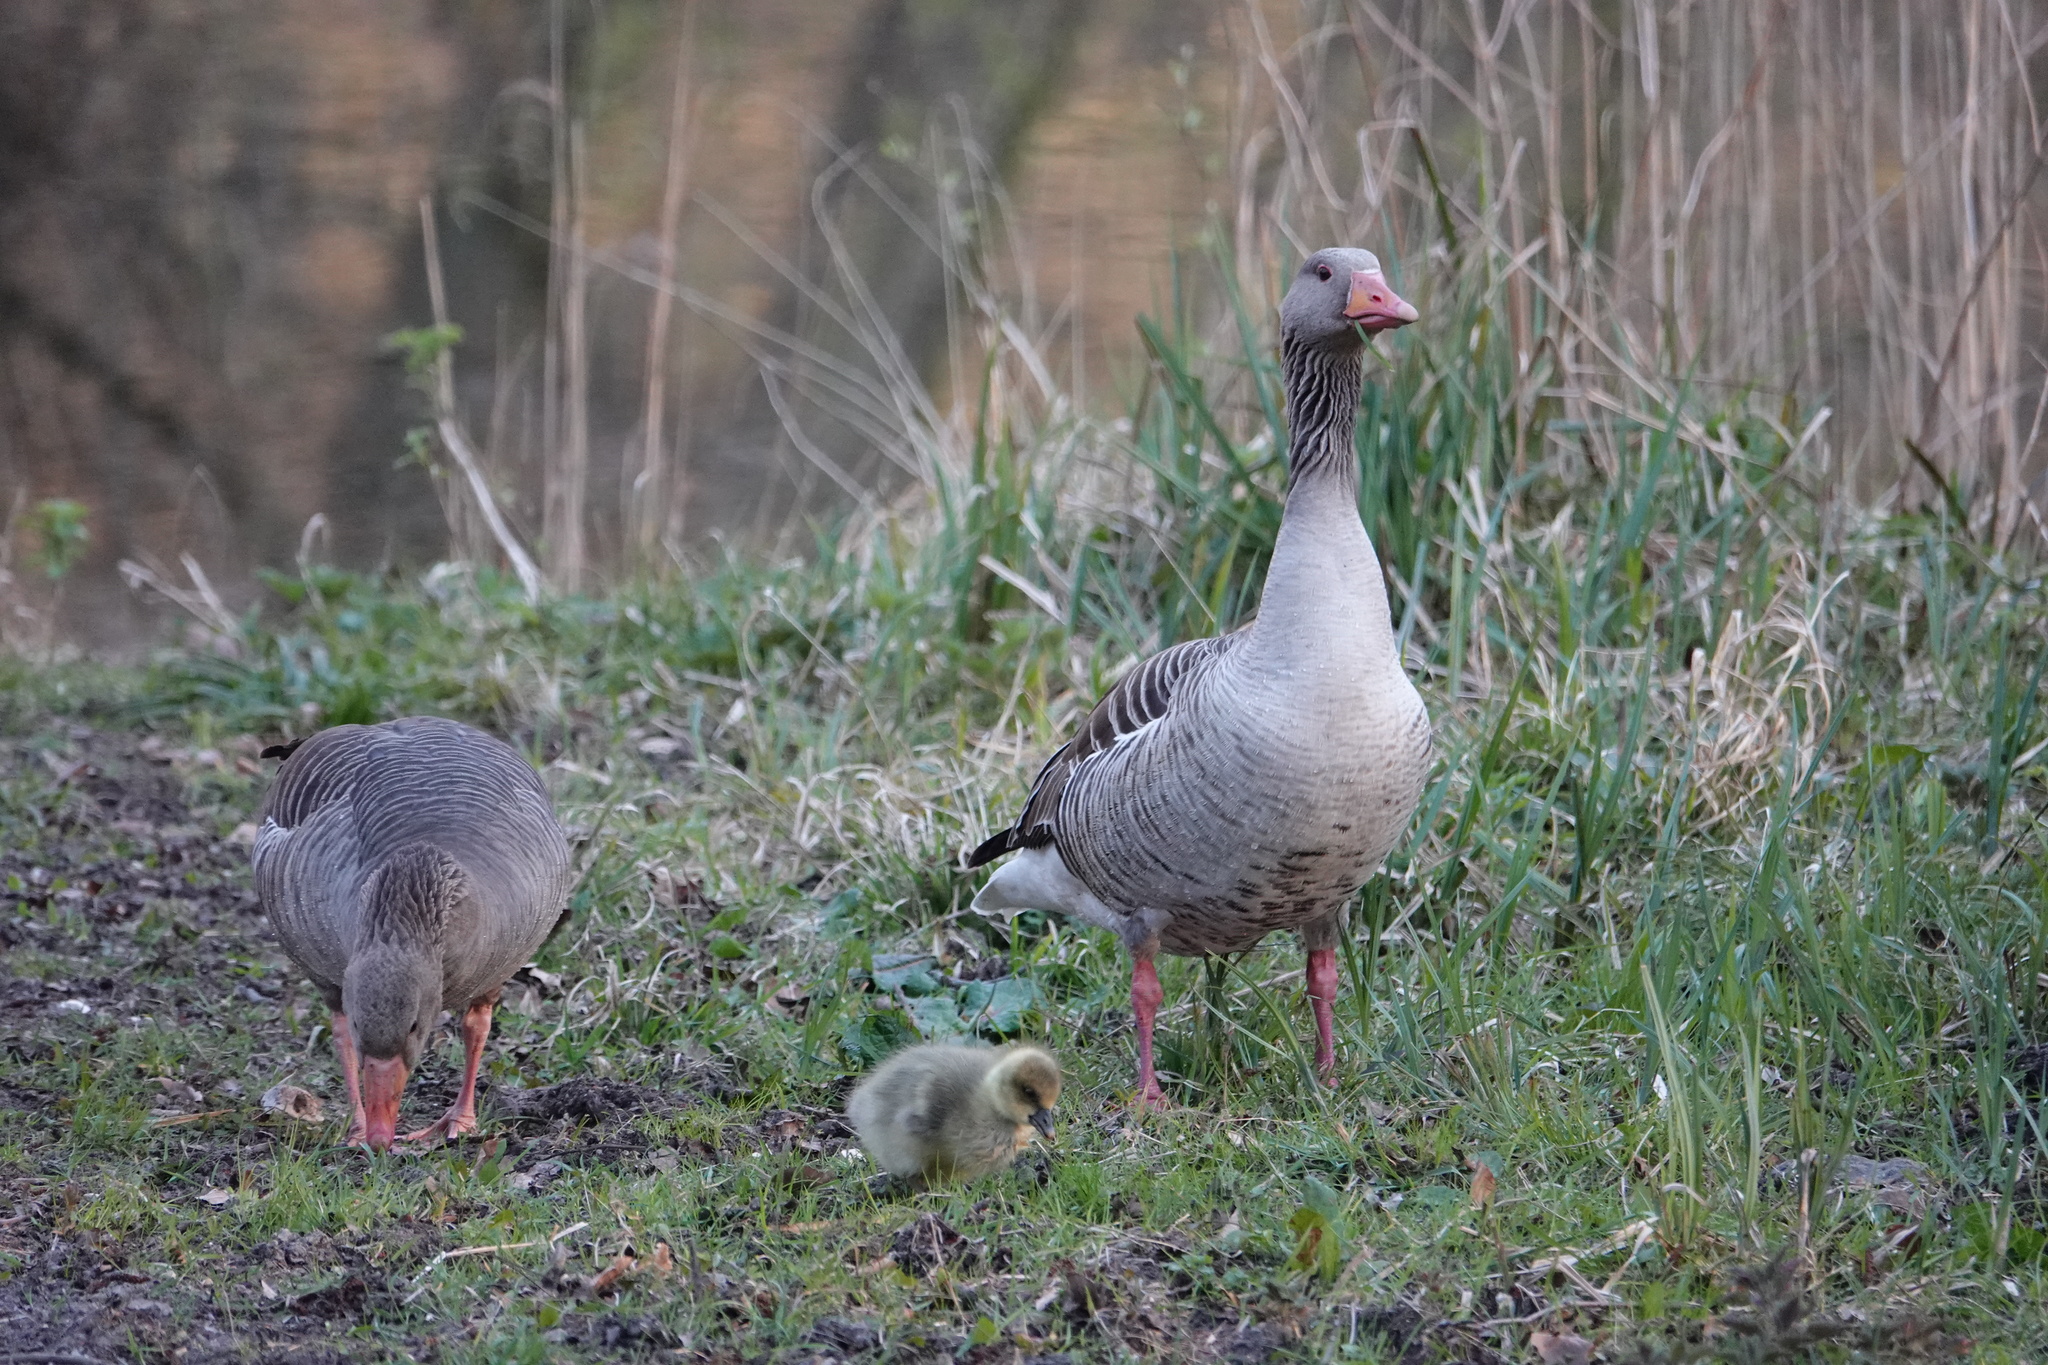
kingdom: Animalia
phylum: Chordata
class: Aves
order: Anseriformes
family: Anatidae
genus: Anser
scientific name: Anser anser
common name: Greylag goose
